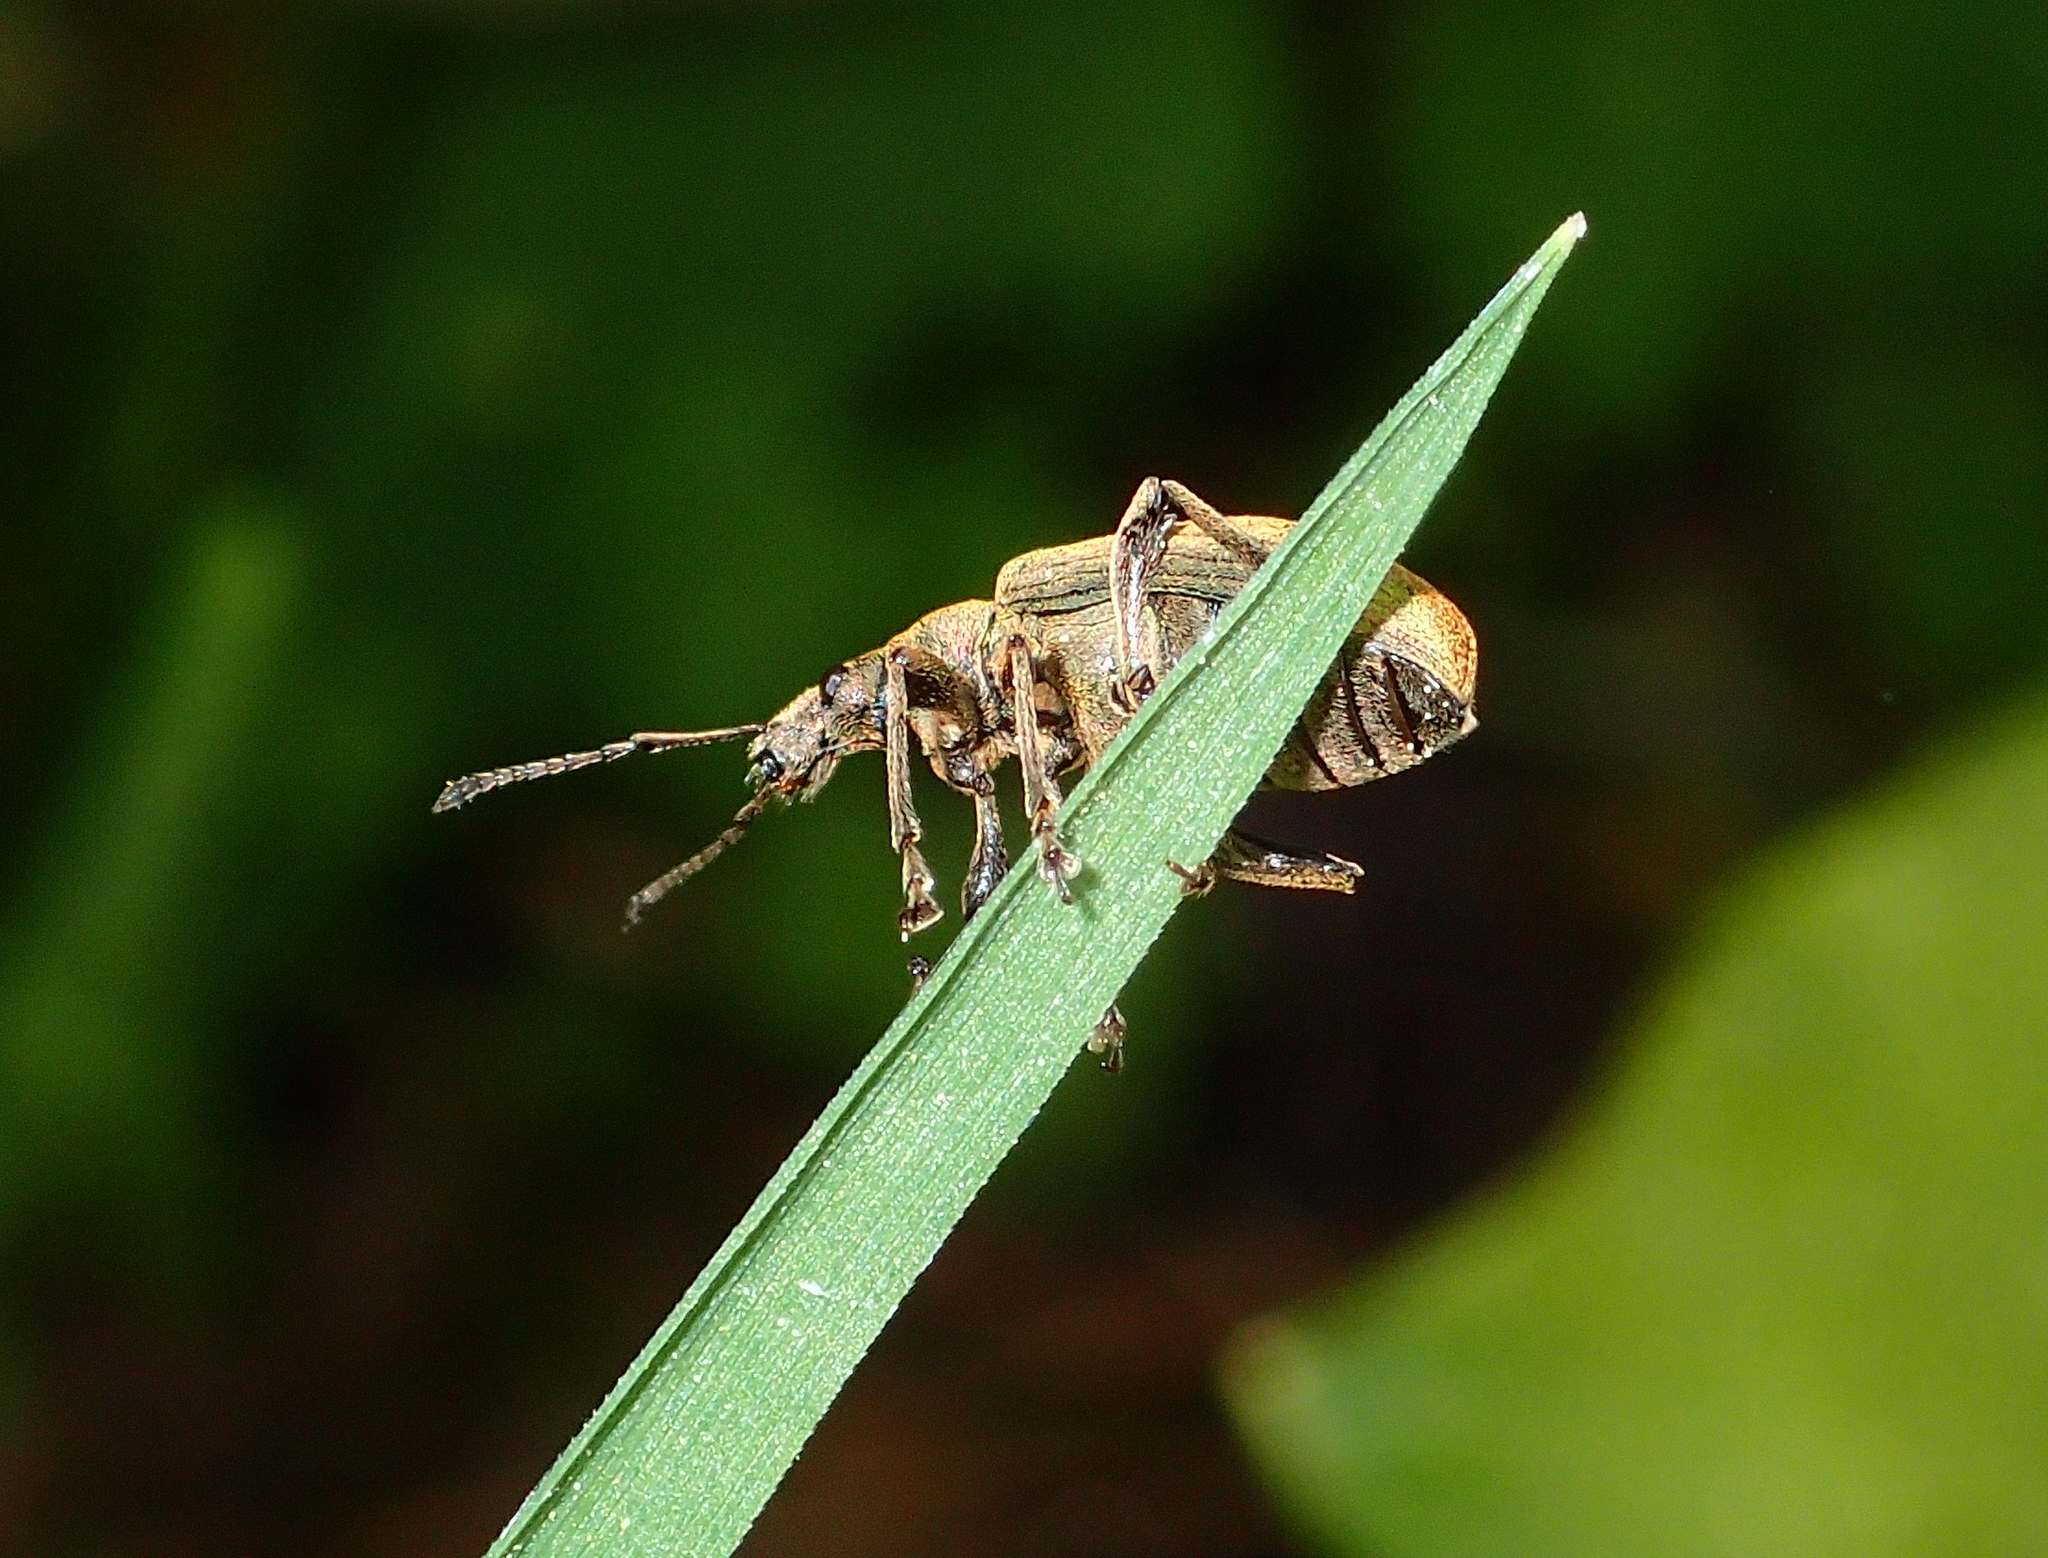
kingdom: Animalia
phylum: Arthropoda
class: Insecta
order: Coleoptera
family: Curculionidae
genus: Phyllobius
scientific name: Phyllobius pomaceus
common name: Green nettle weevil
